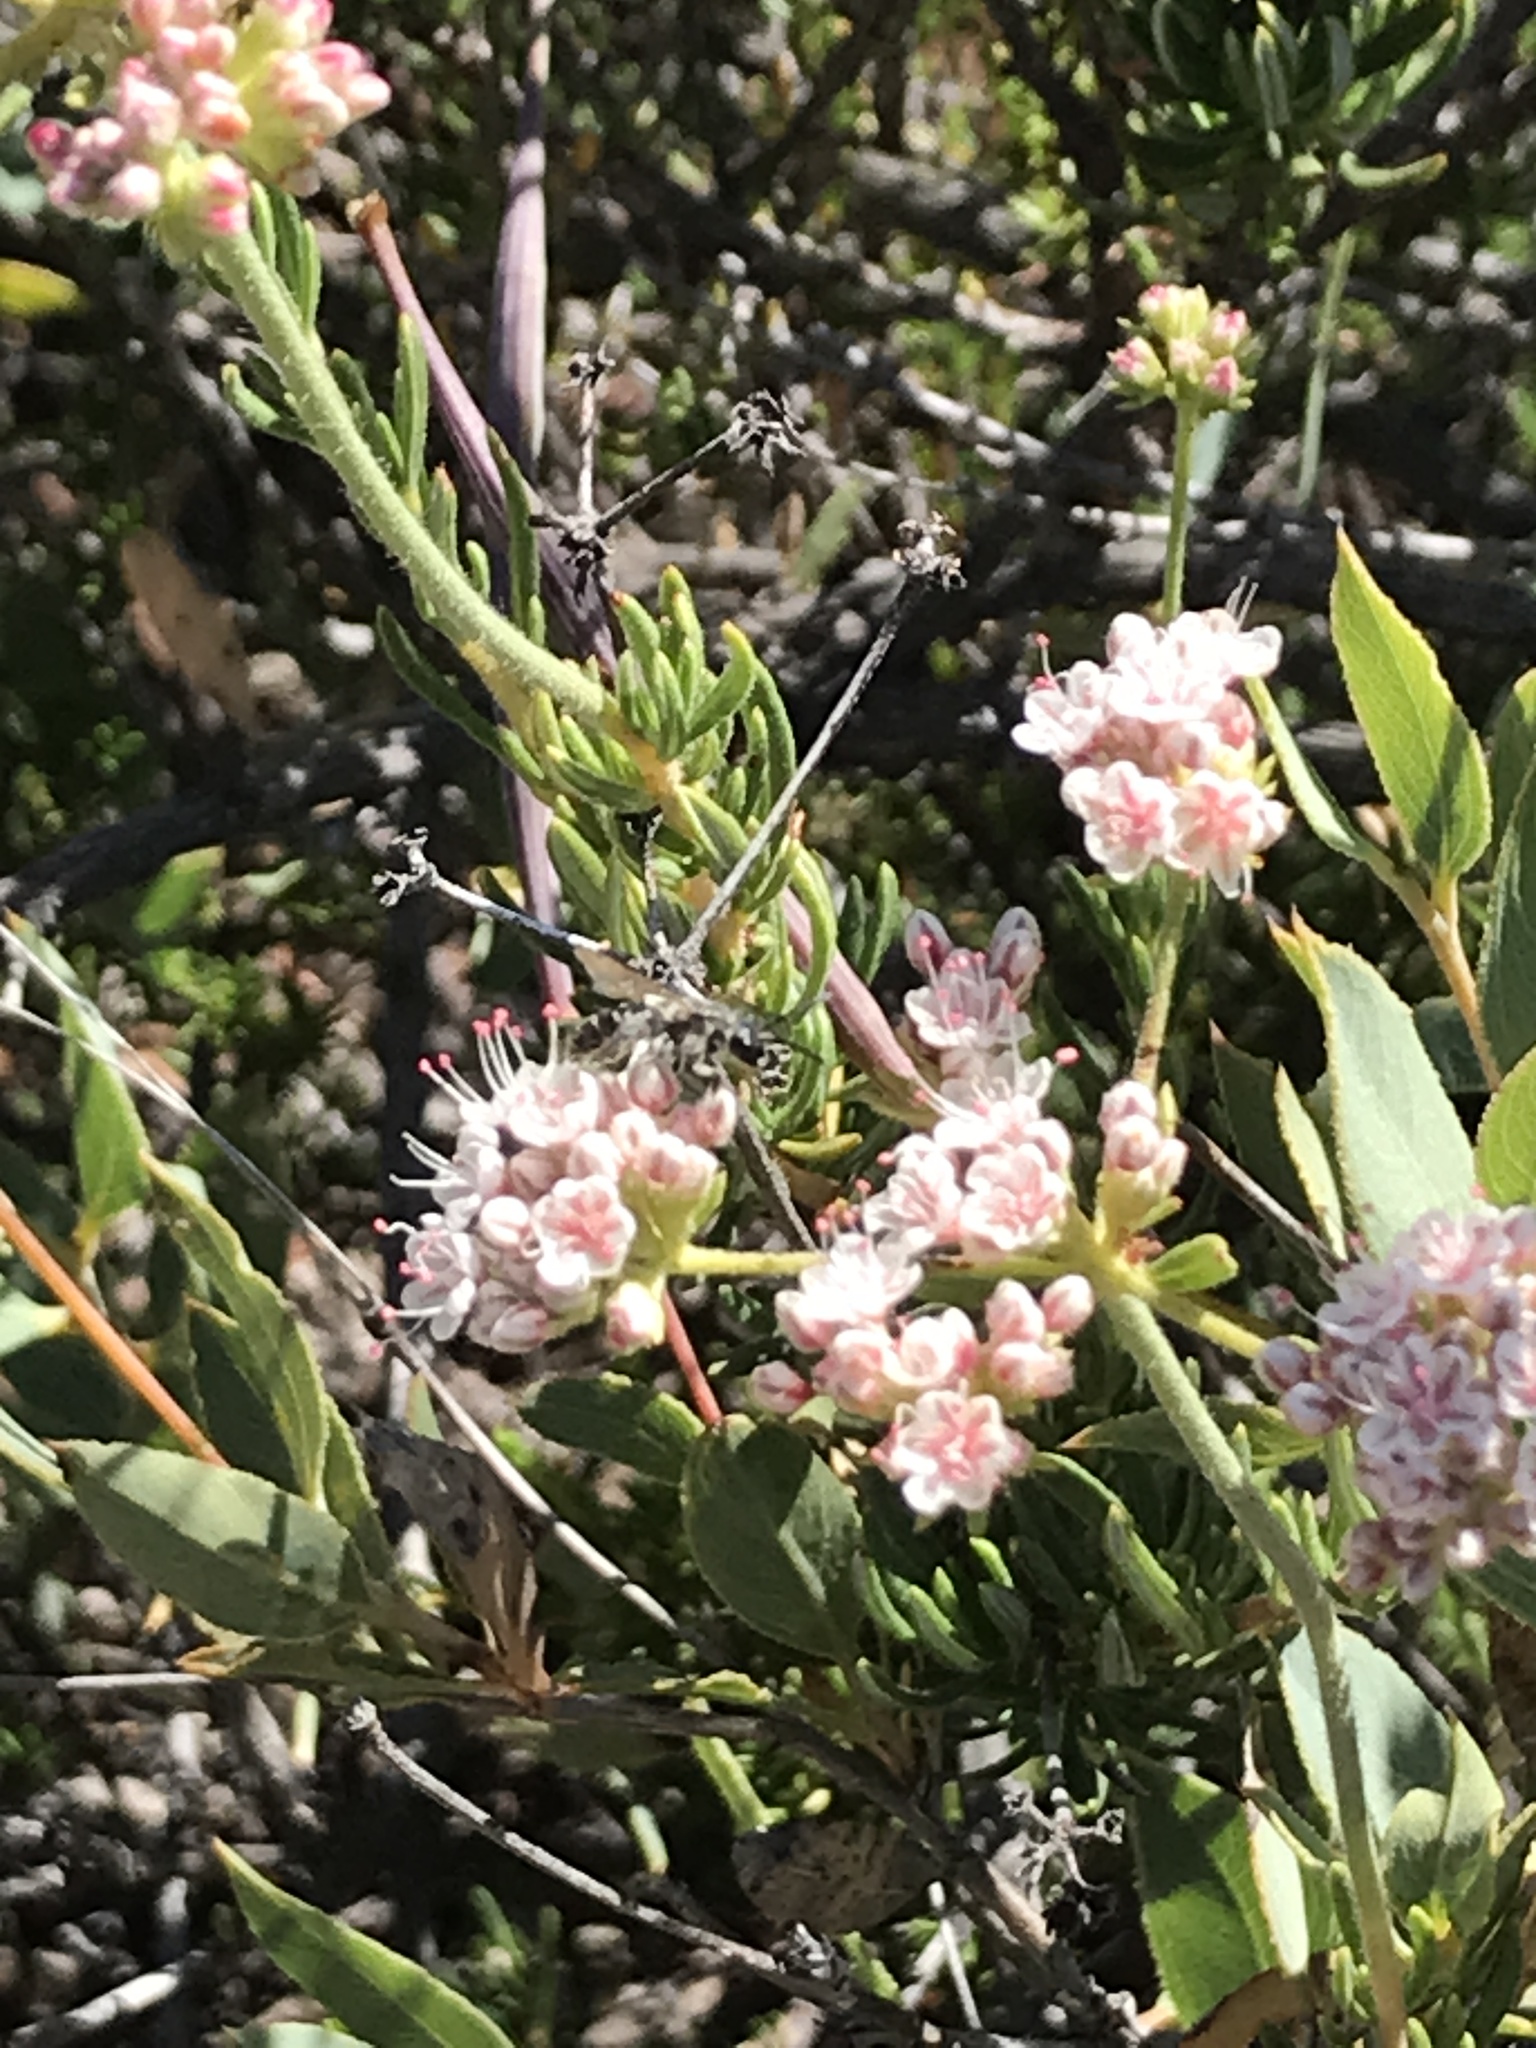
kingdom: Plantae
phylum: Tracheophyta
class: Magnoliopsida
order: Caryophyllales
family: Polygonaceae
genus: Eriogonum
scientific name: Eriogonum fasciculatum
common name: California wild buckwheat
